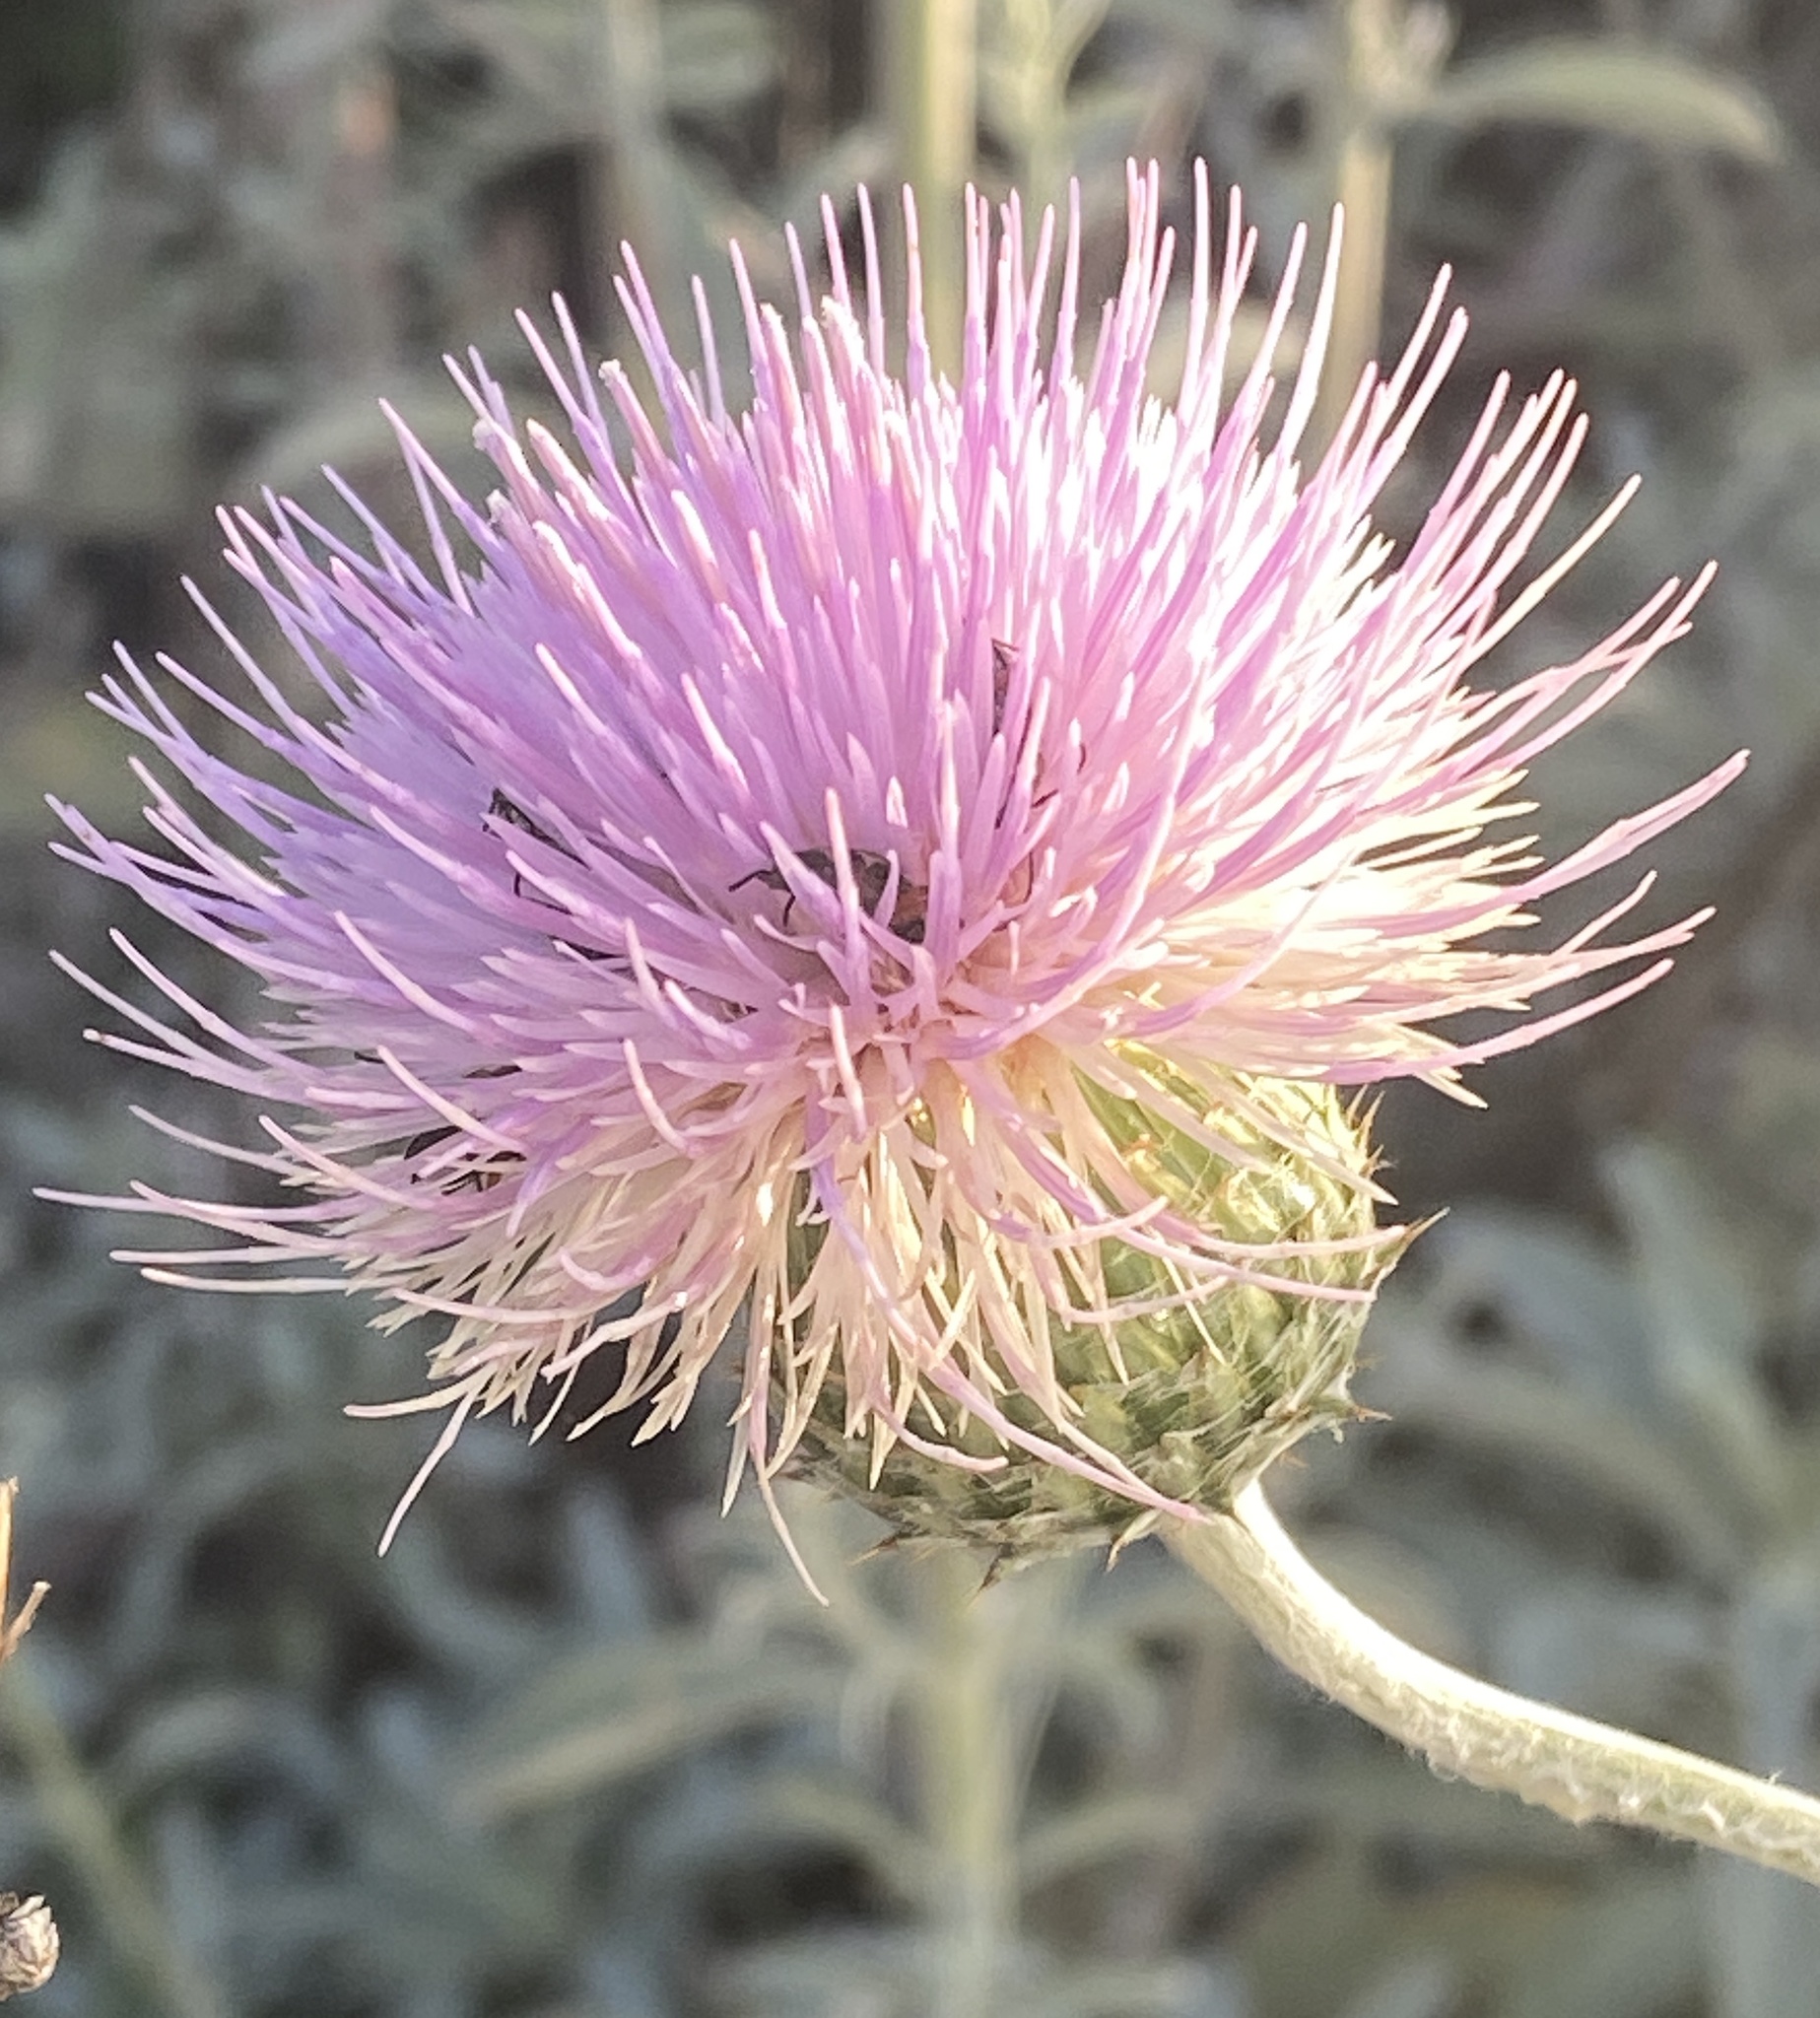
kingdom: Plantae
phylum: Tracheophyta
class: Magnoliopsida
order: Asterales
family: Asteraceae
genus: Cirsium
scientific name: Cirsium occidentale
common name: Western thistle
